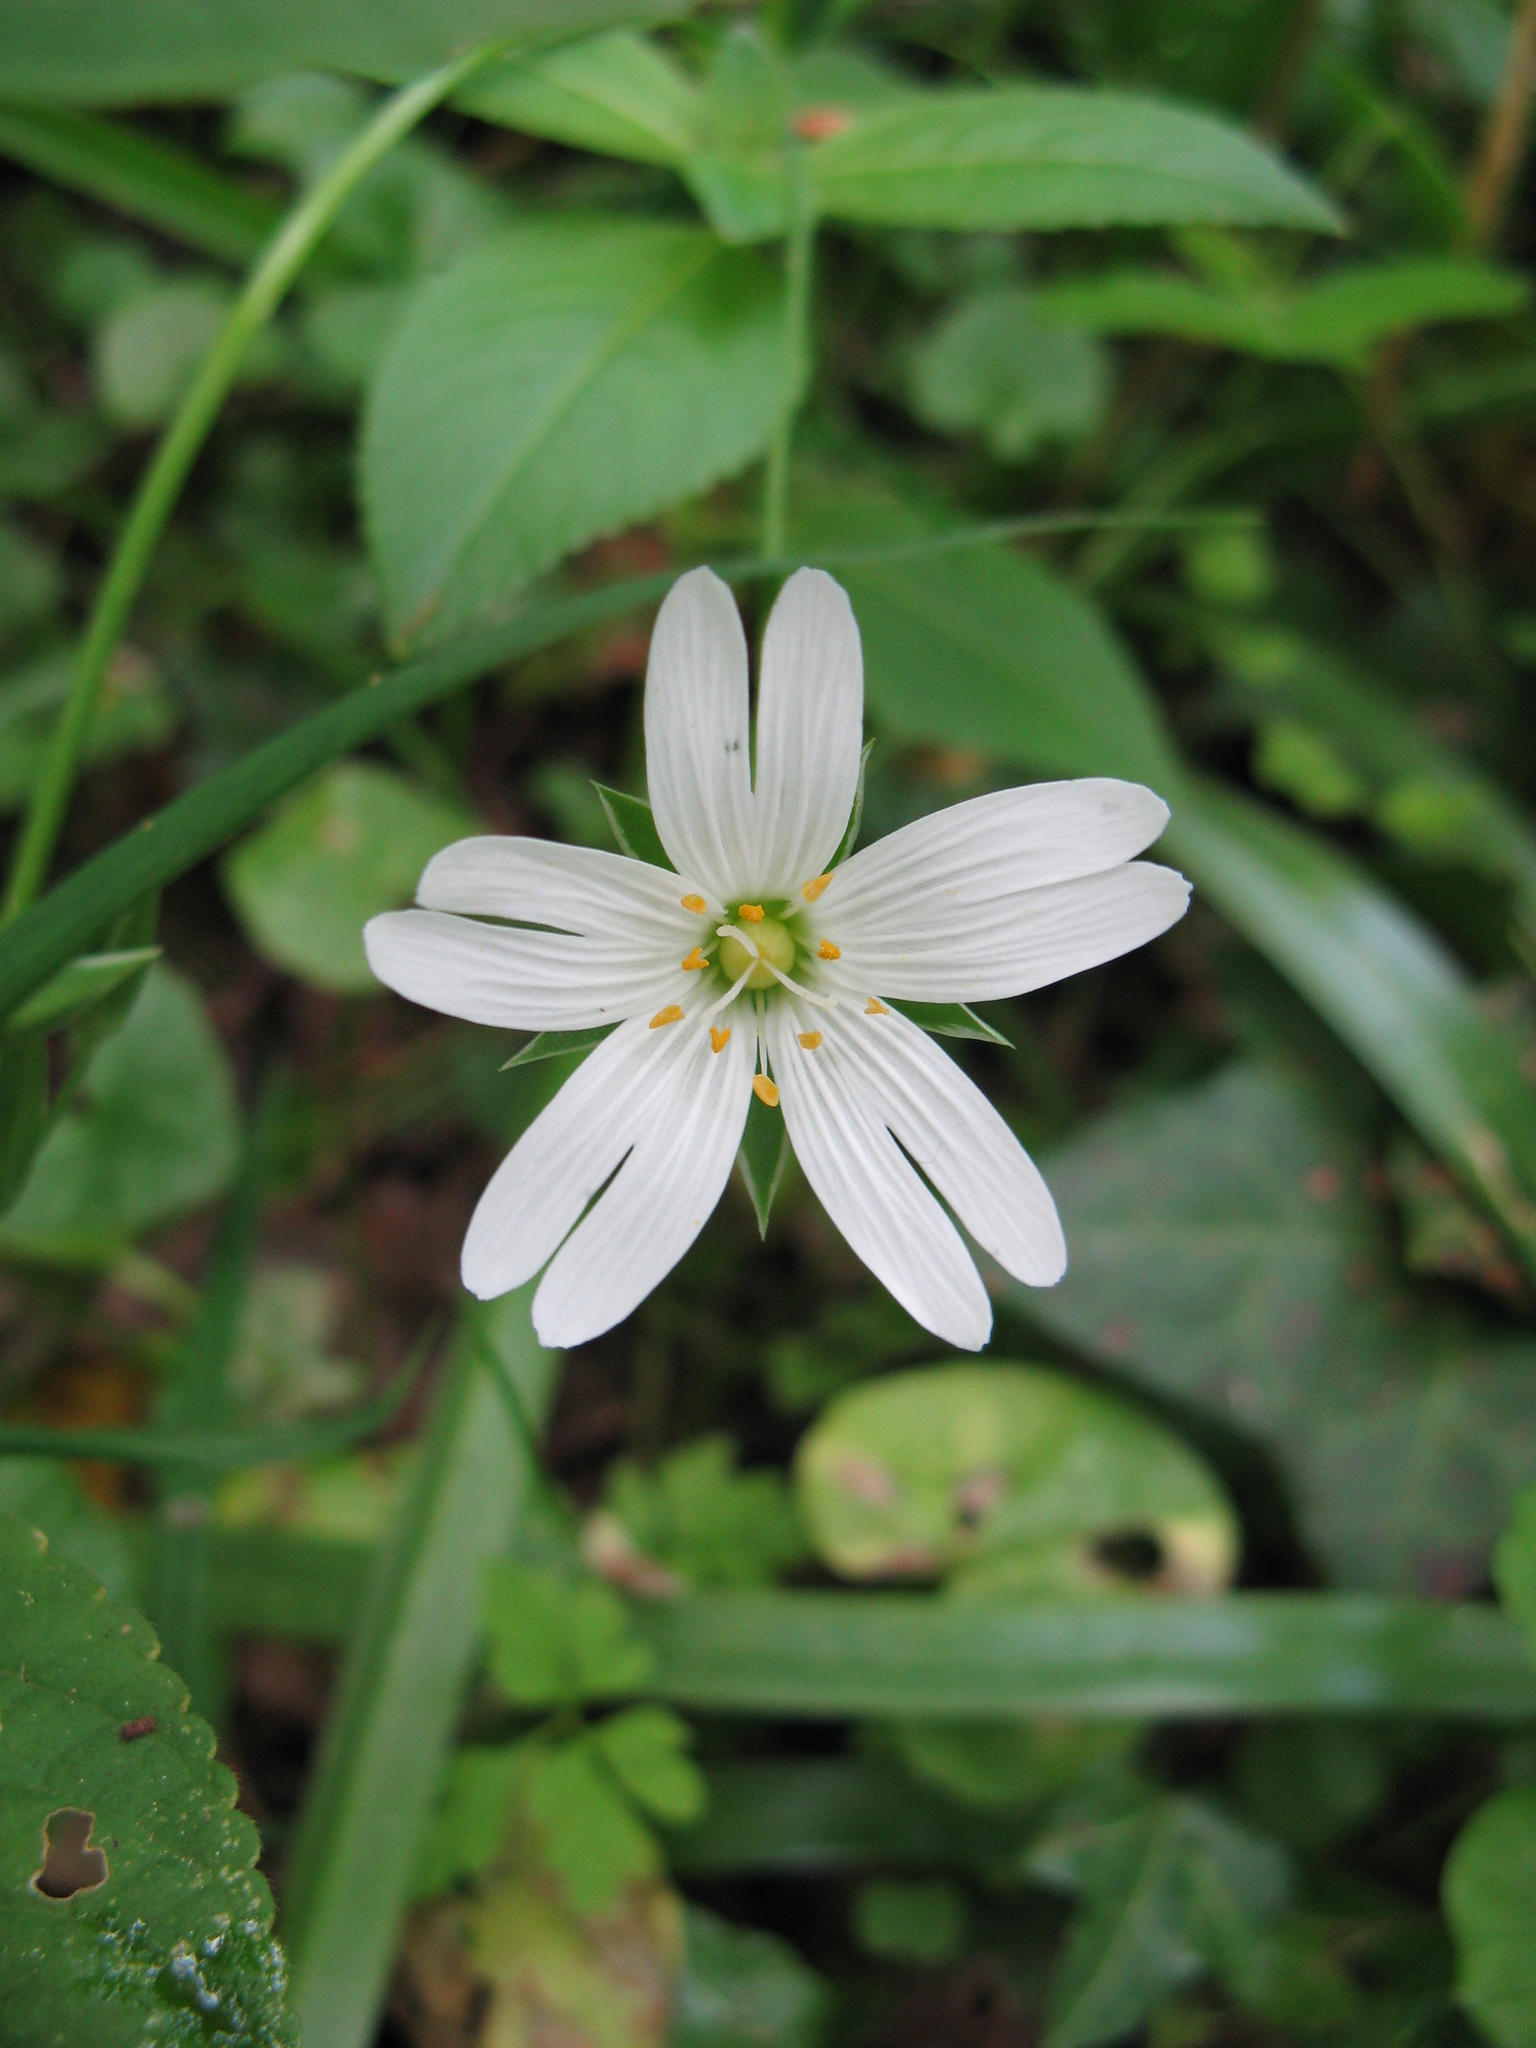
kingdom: Plantae
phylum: Tracheophyta
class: Magnoliopsida
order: Caryophyllales
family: Caryophyllaceae
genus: Rabelera
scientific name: Rabelera holostea
